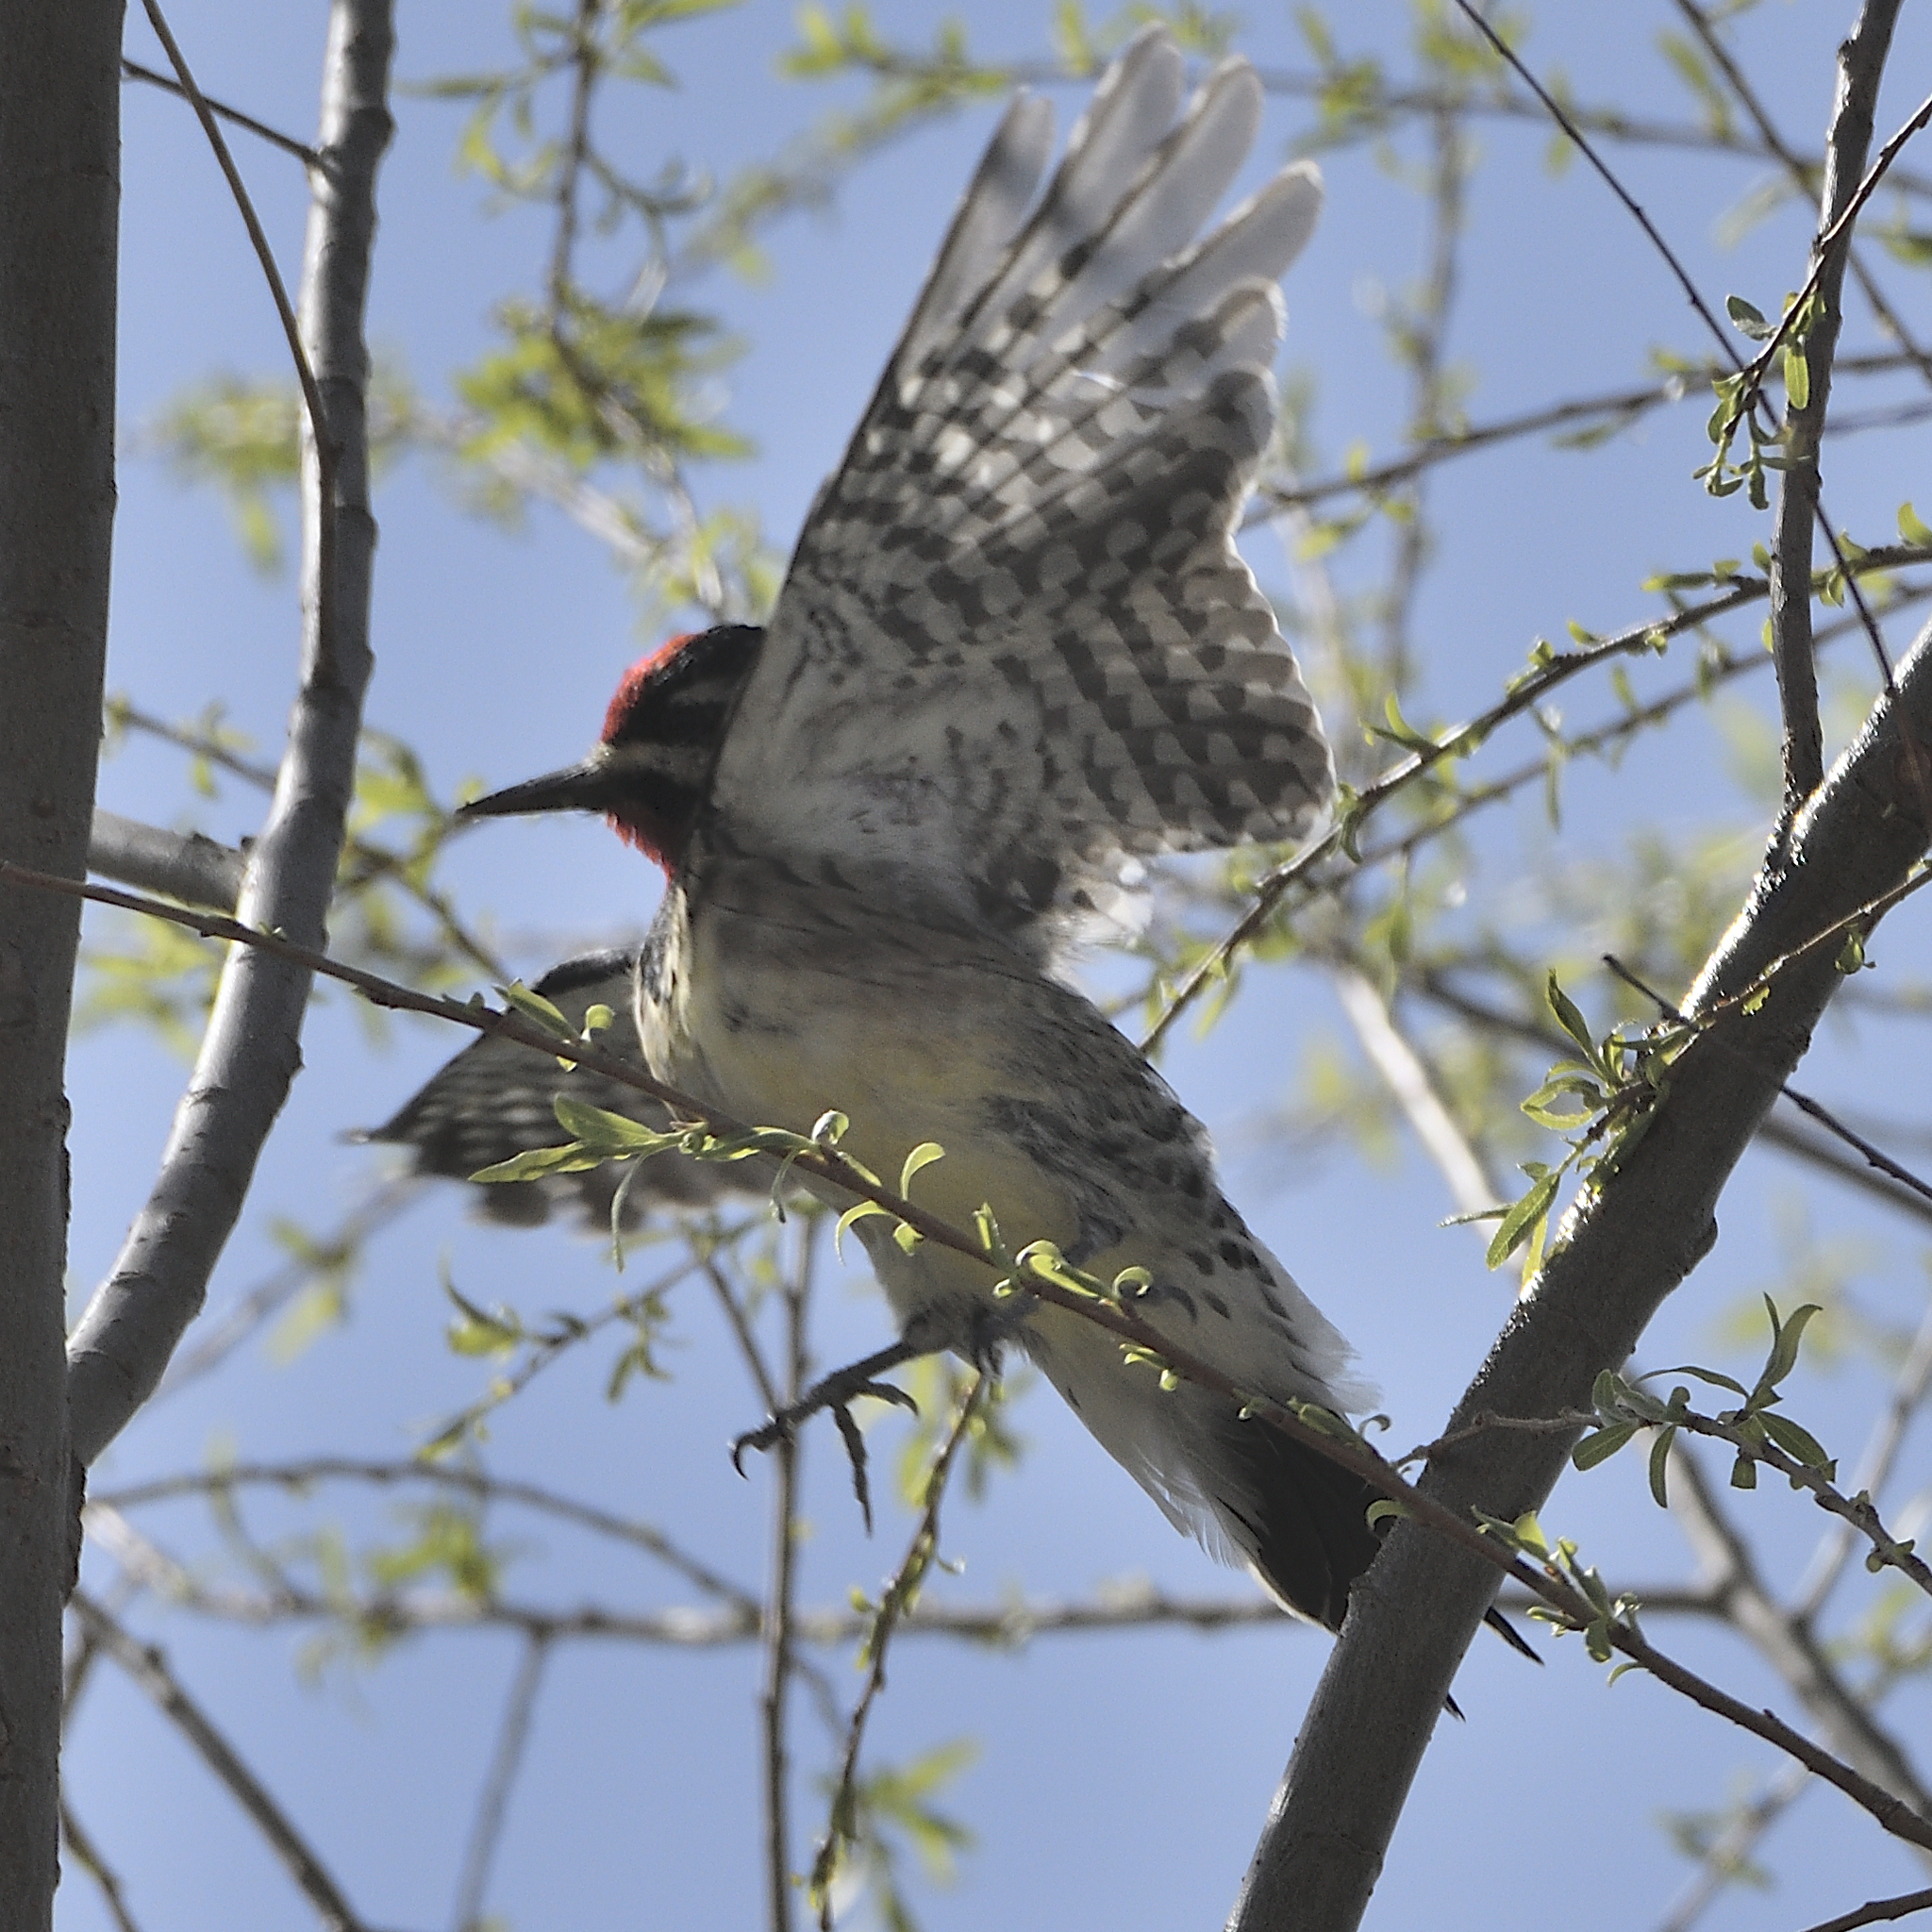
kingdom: Animalia
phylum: Chordata
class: Aves
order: Piciformes
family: Picidae
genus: Sphyrapicus
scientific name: Sphyrapicus varius
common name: Yellow-bellied sapsucker
